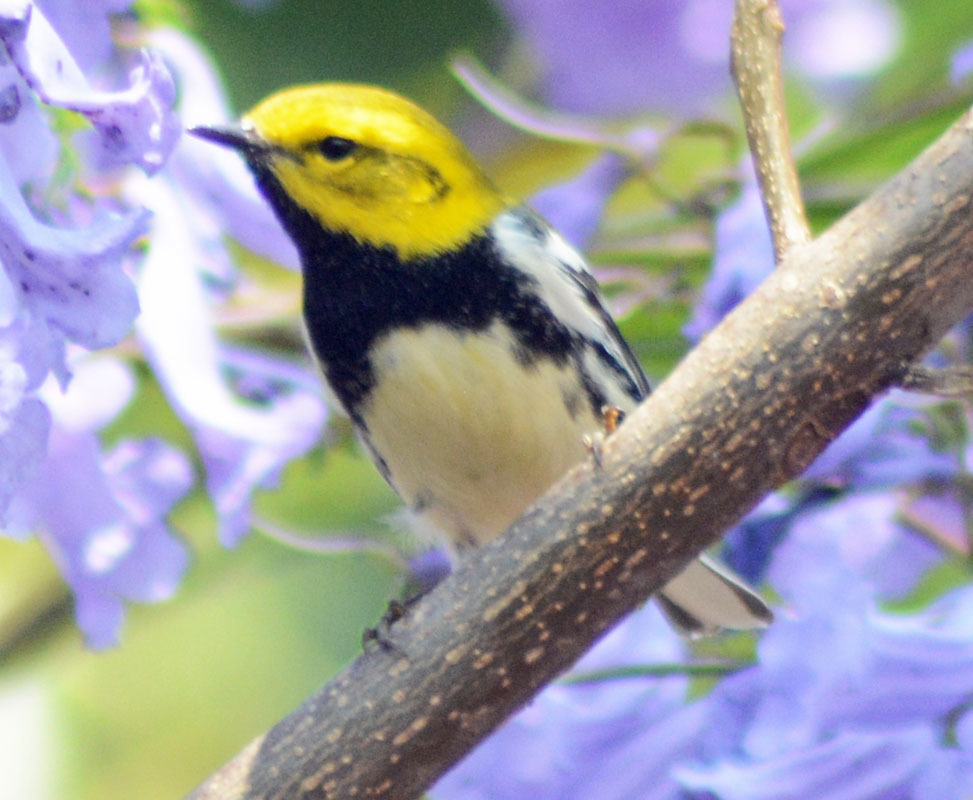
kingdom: Animalia
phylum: Chordata
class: Aves
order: Passeriformes
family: Parulidae
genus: Setophaga
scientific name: Setophaga virens
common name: Black-throated green warbler
